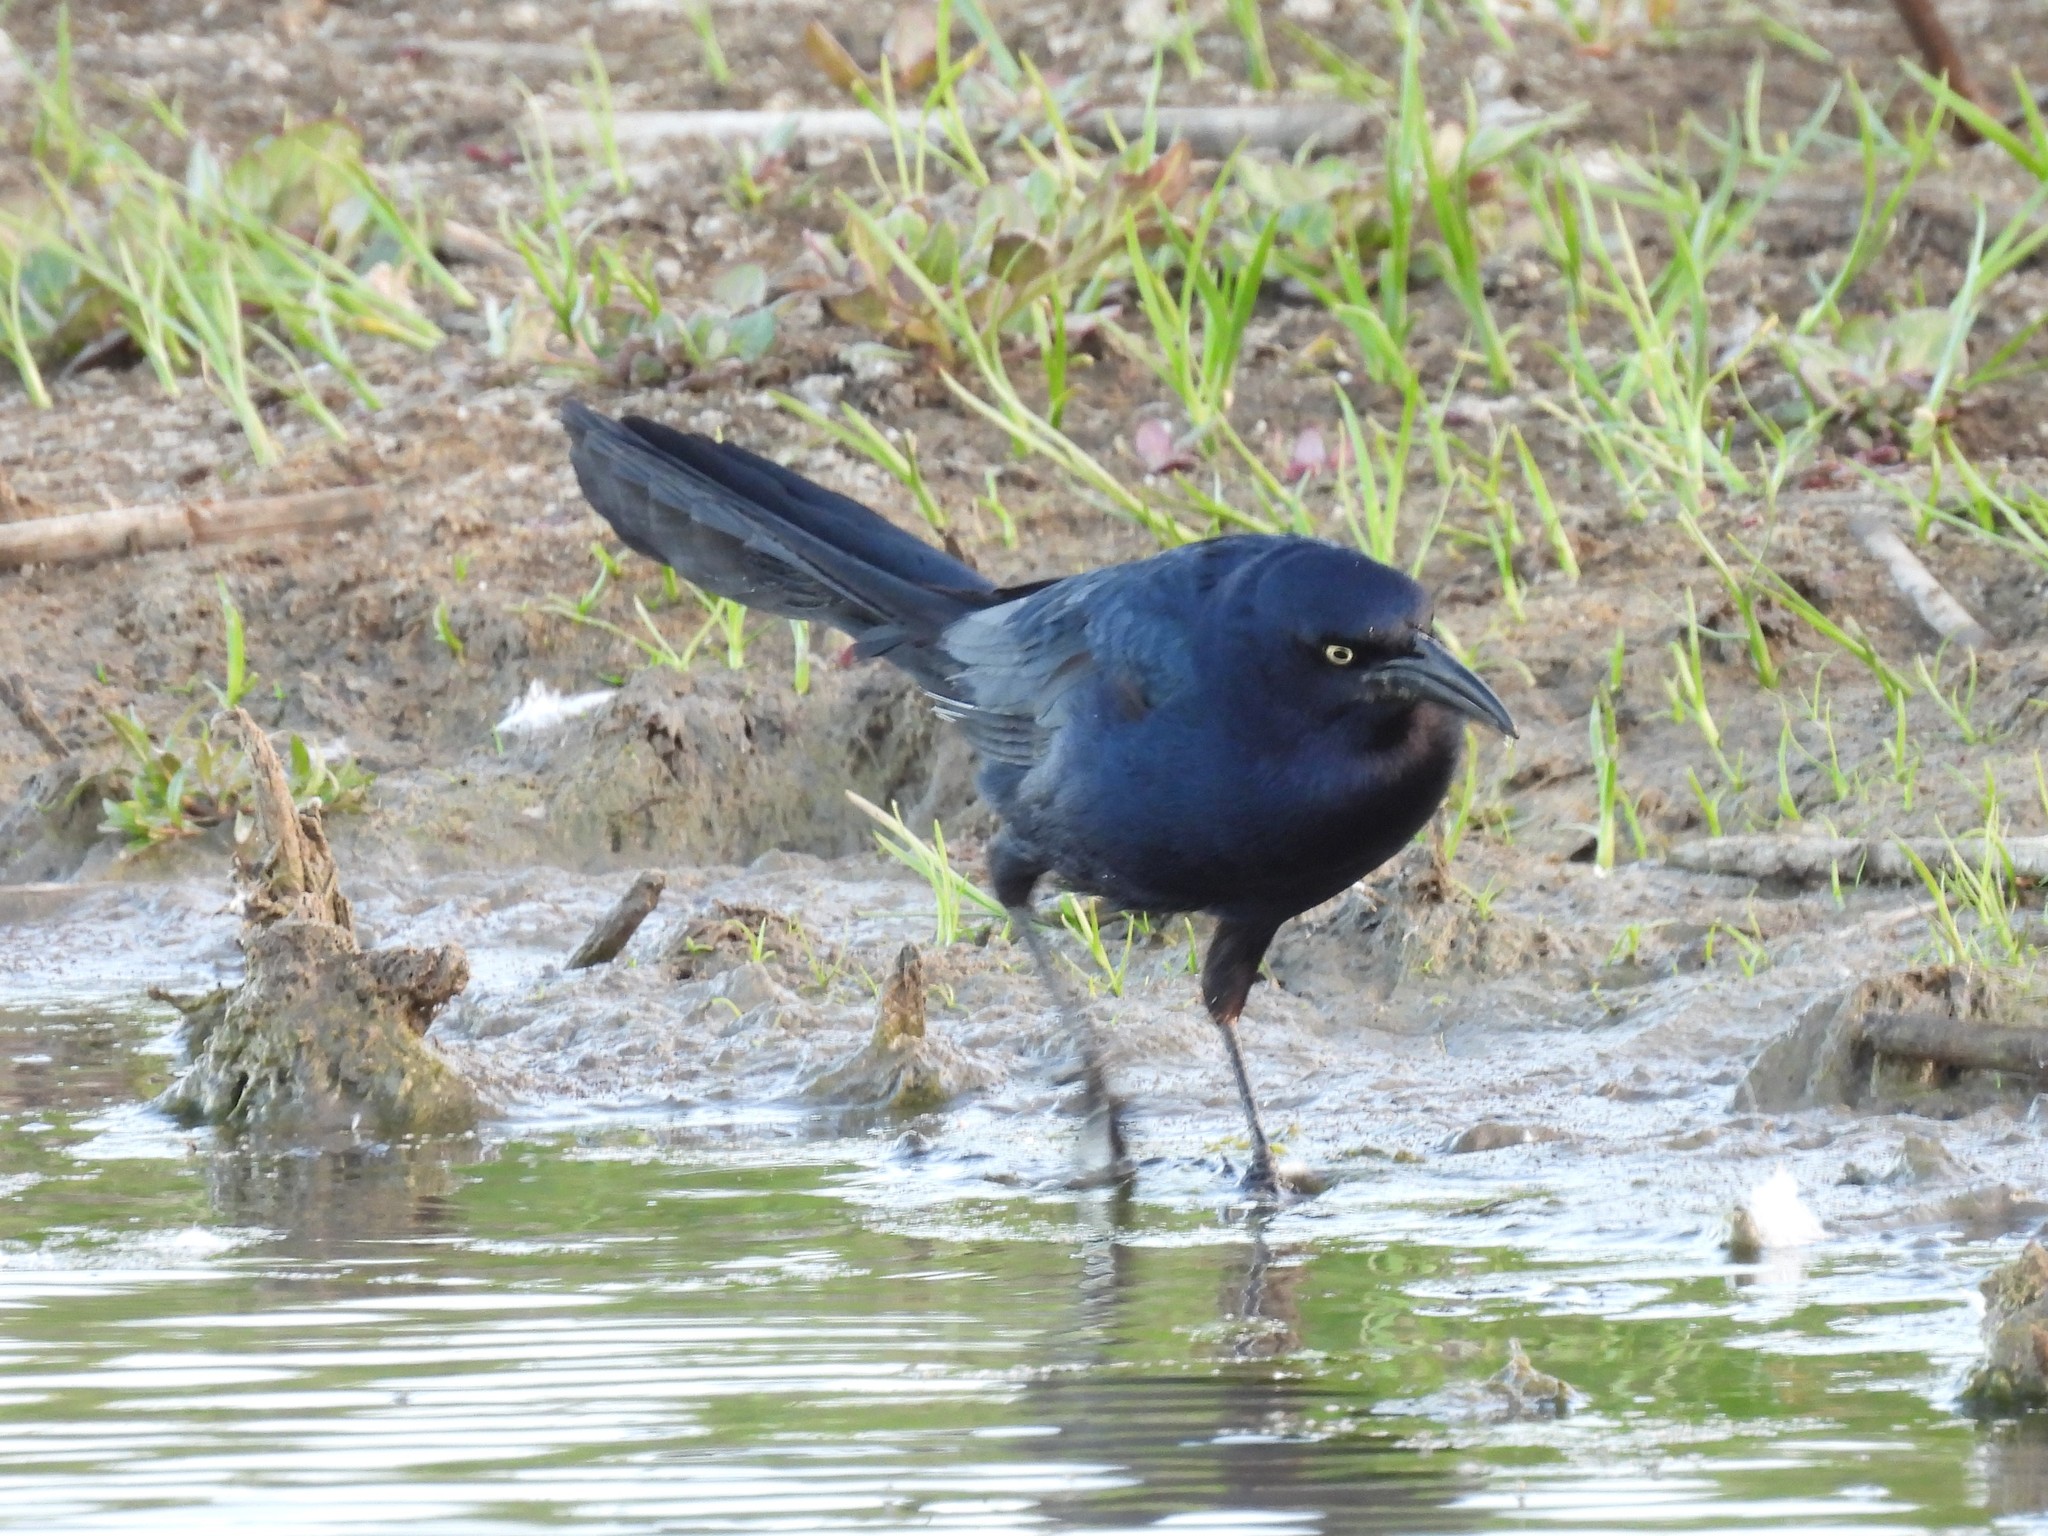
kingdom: Animalia
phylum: Chordata
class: Aves
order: Passeriformes
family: Icteridae
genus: Quiscalus
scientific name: Quiscalus mexicanus
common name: Great-tailed grackle
